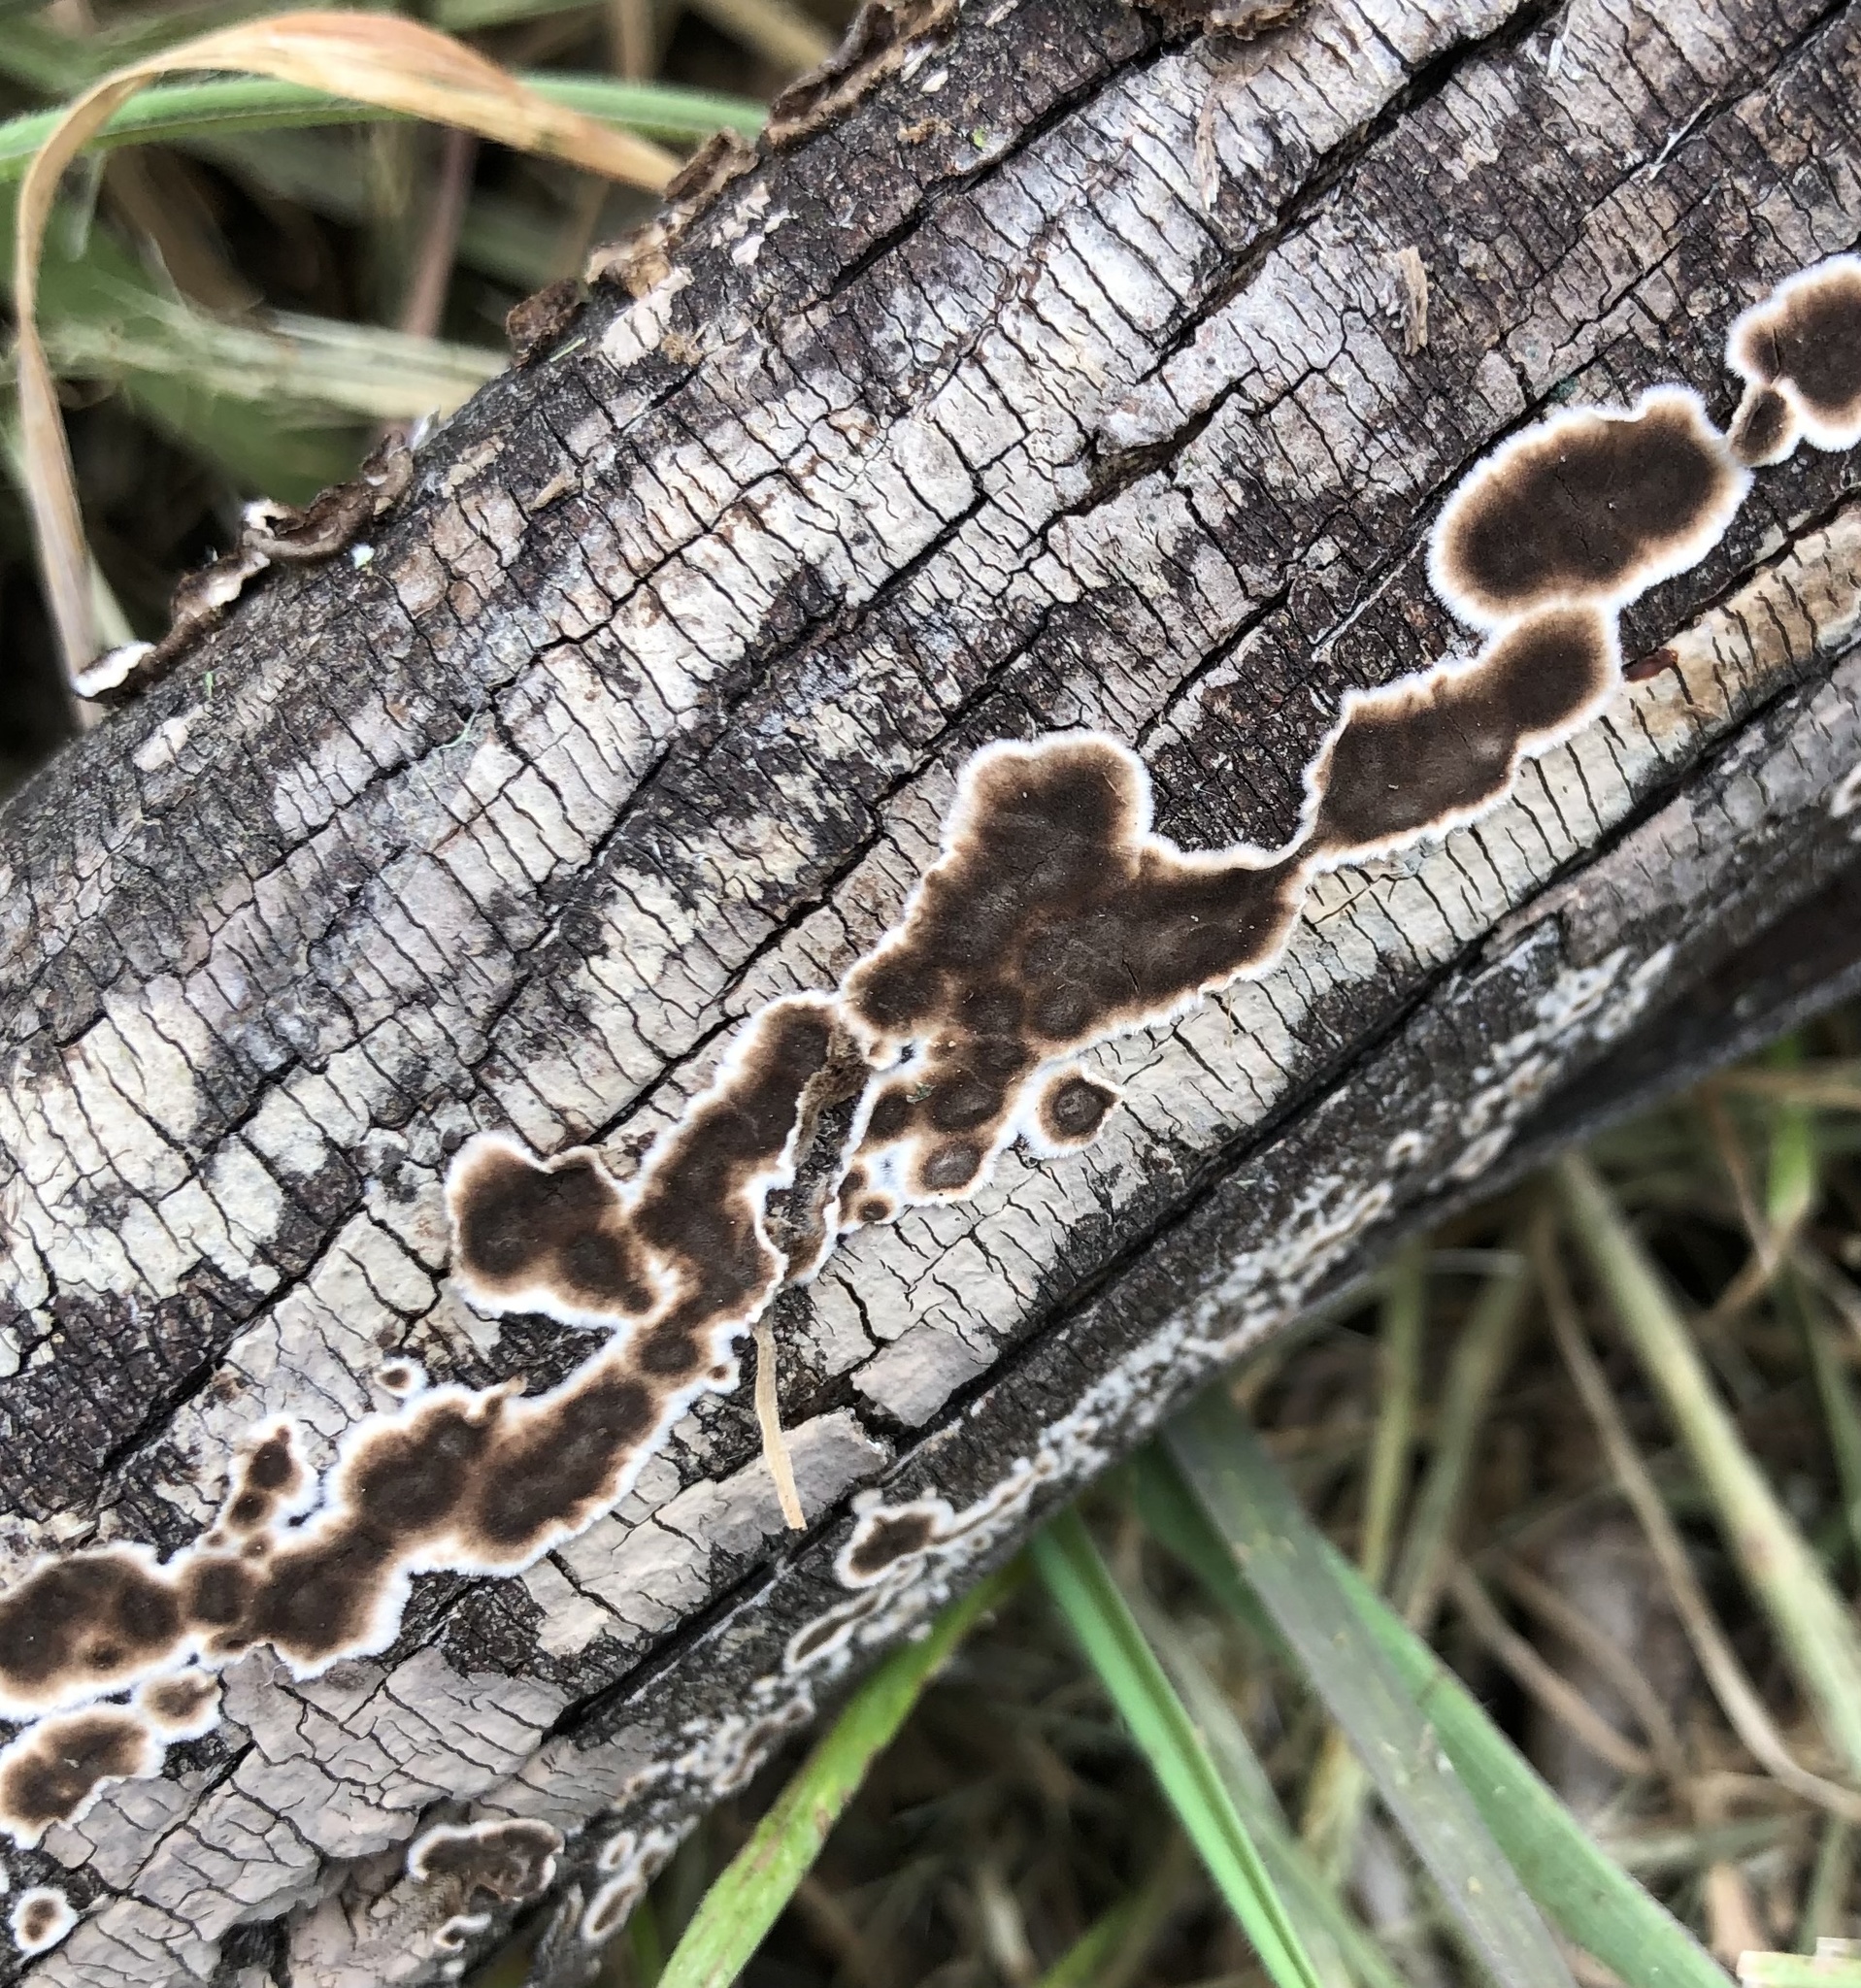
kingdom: Fungi
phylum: Basidiomycota
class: Agaricomycetes
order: Russulales
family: Peniophoraceae
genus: Peniophora
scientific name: Peniophora albobadia
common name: Giraffe spots
